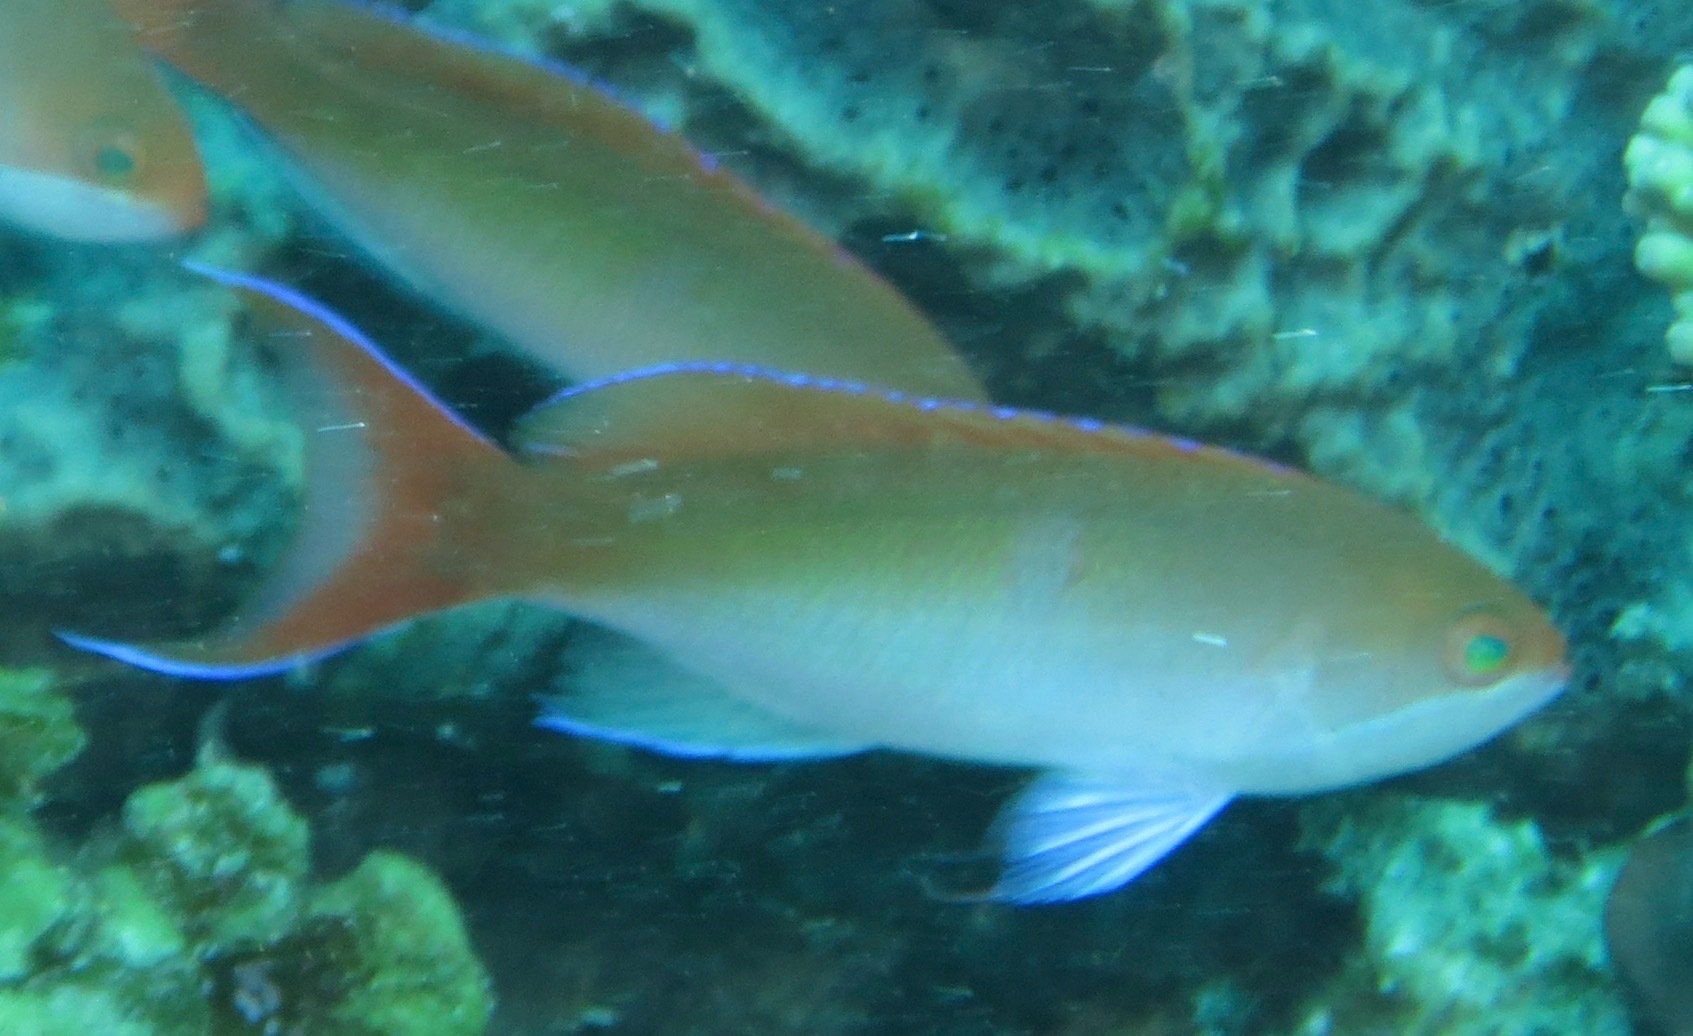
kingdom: Animalia
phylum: Chordata
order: Perciformes
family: Serranidae
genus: Pseudanthias
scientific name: Pseudanthias cooperi
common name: Red basslet
